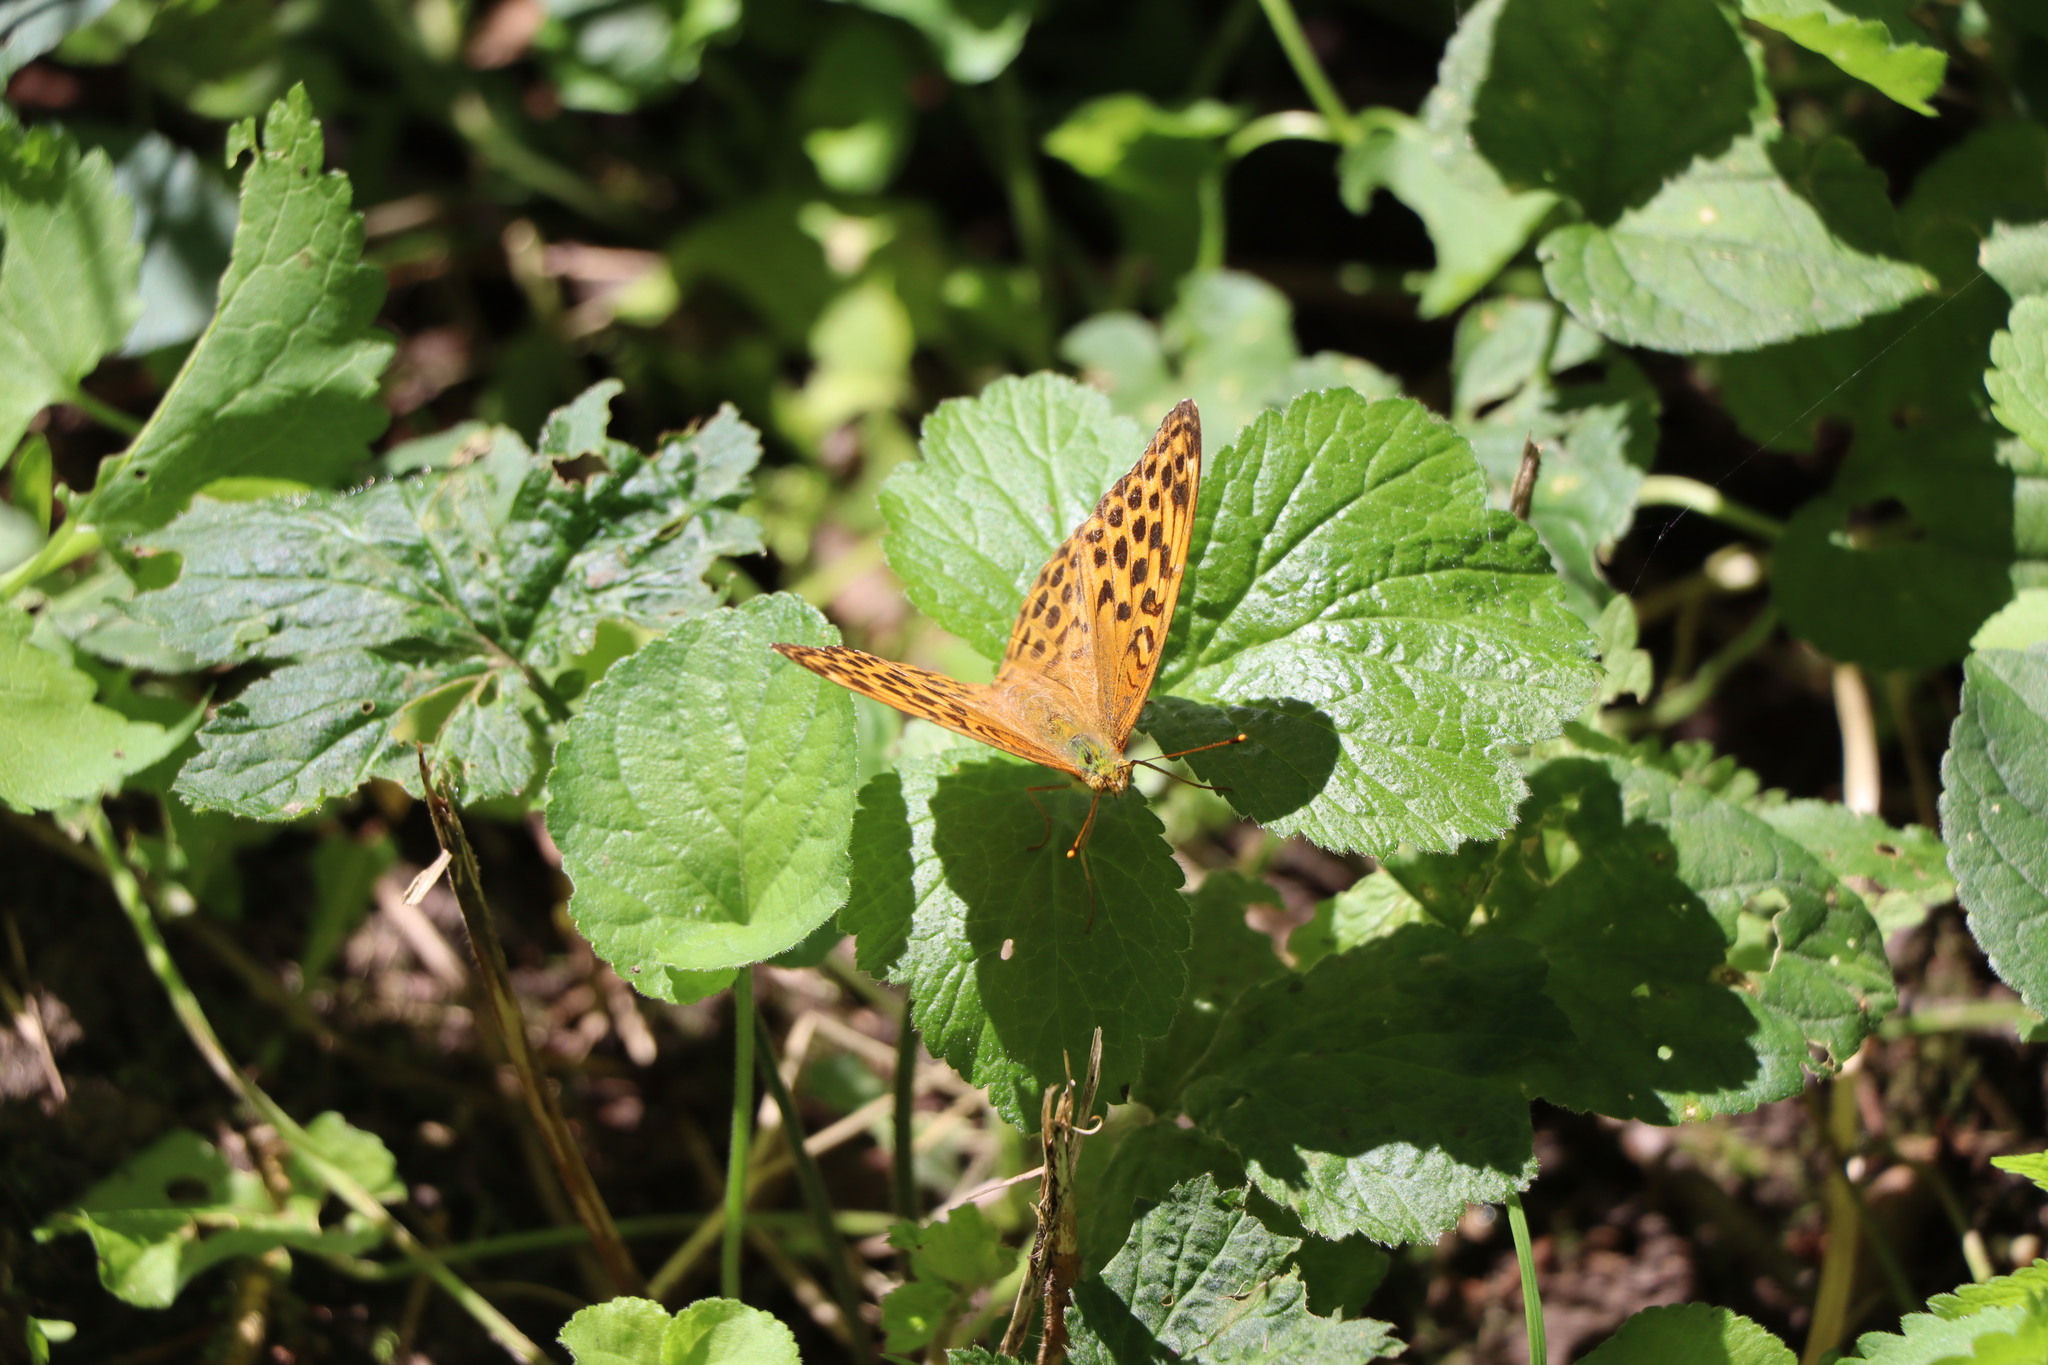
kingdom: Animalia
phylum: Arthropoda
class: Insecta
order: Lepidoptera
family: Nymphalidae
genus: Argynnis
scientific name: Argynnis paphia
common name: Silver-washed fritillary
